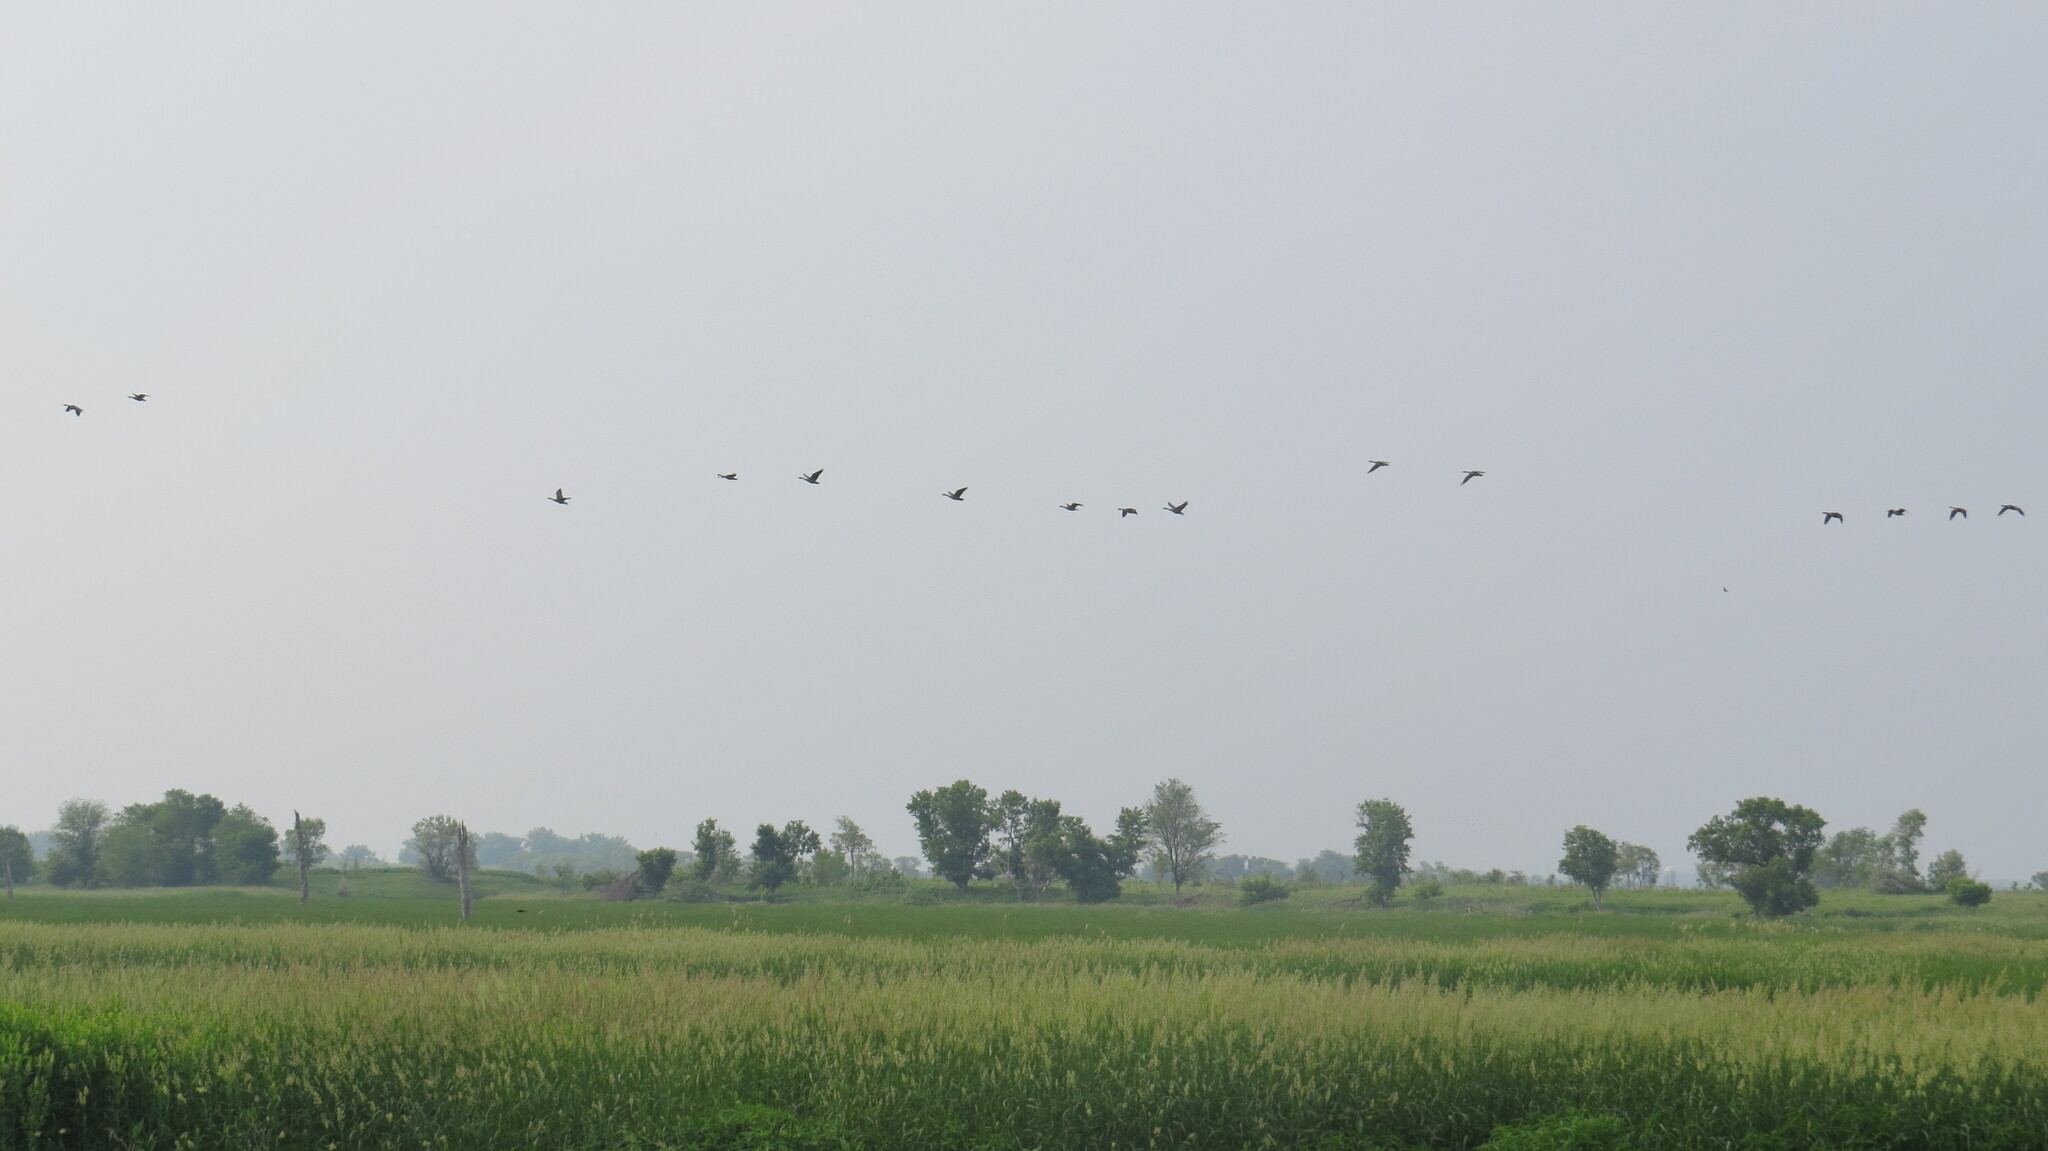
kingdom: Animalia
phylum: Chordata
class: Aves
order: Anseriformes
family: Anatidae
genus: Branta
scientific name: Branta canadensis
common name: Canada goose
